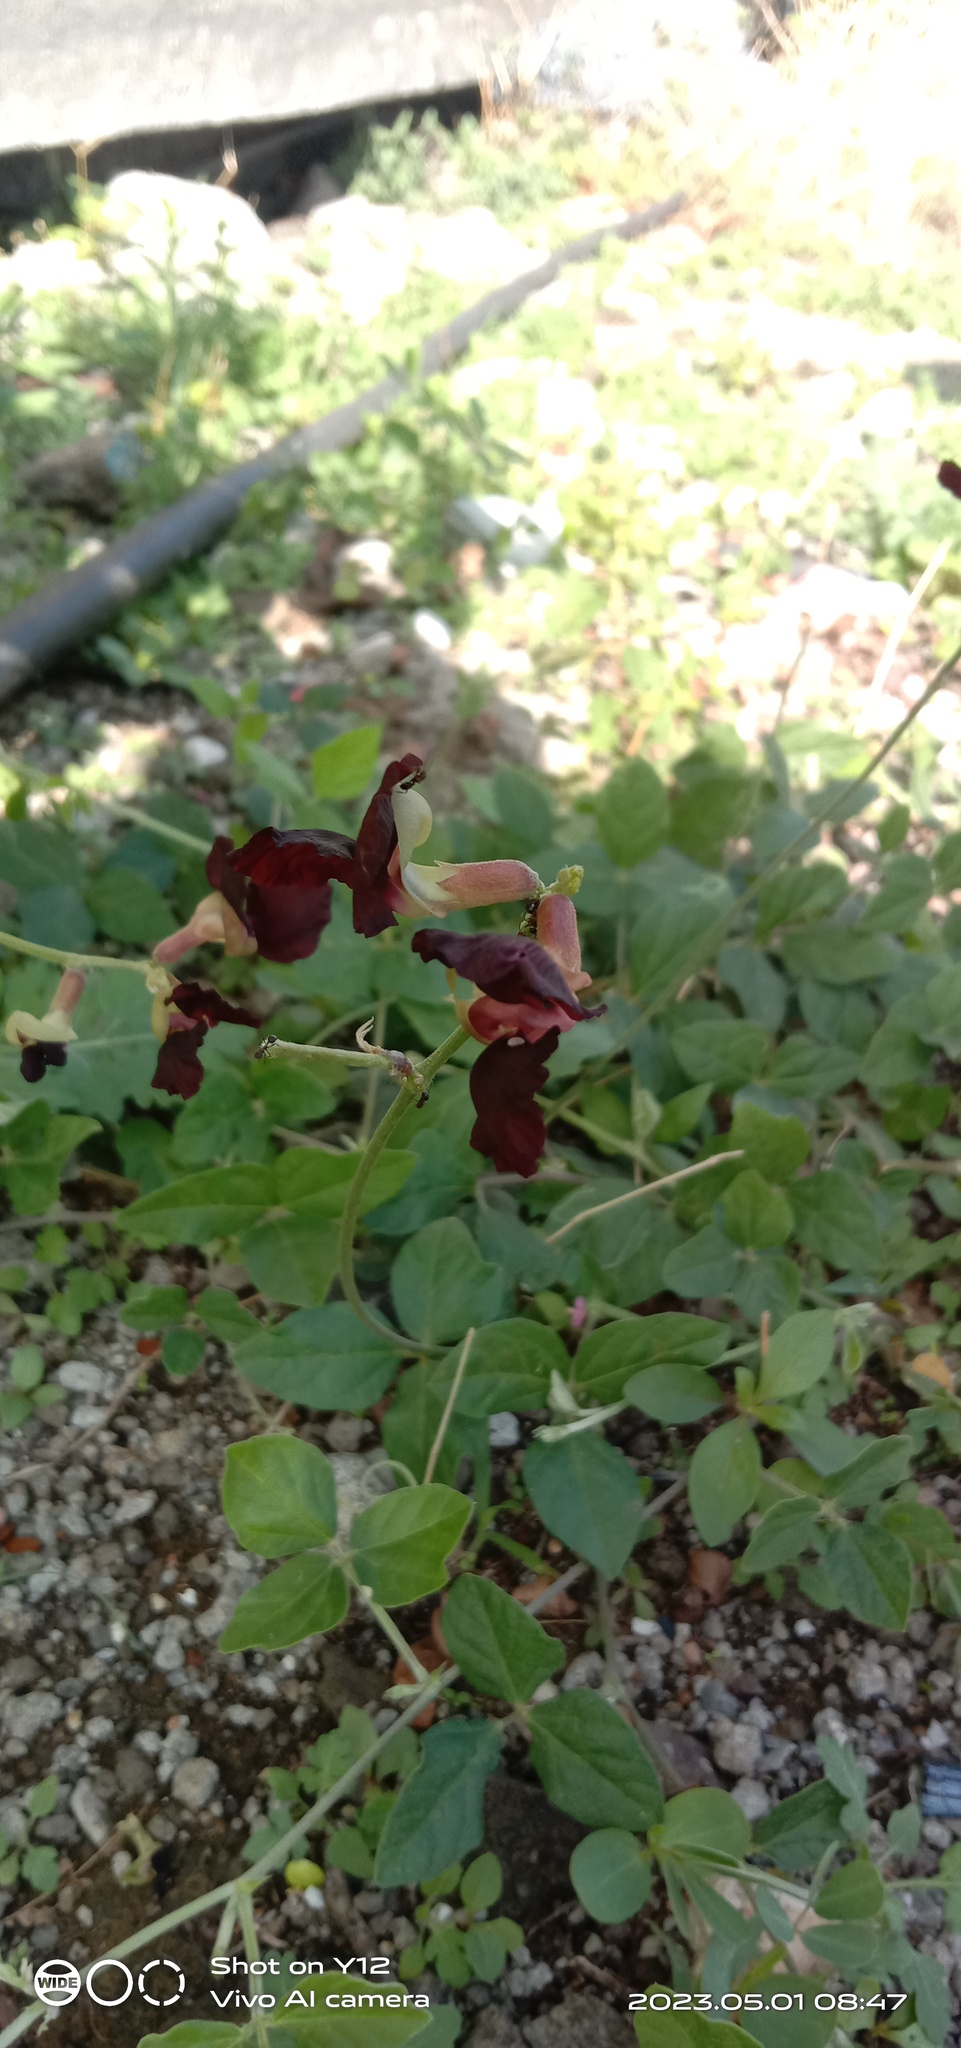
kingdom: Plantae
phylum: Tracheophyta
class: Magnoliopsida
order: Fabales
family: Fabaceae
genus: Macroptilium
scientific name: Macroptilium atropurpureum
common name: Purple bushbean
